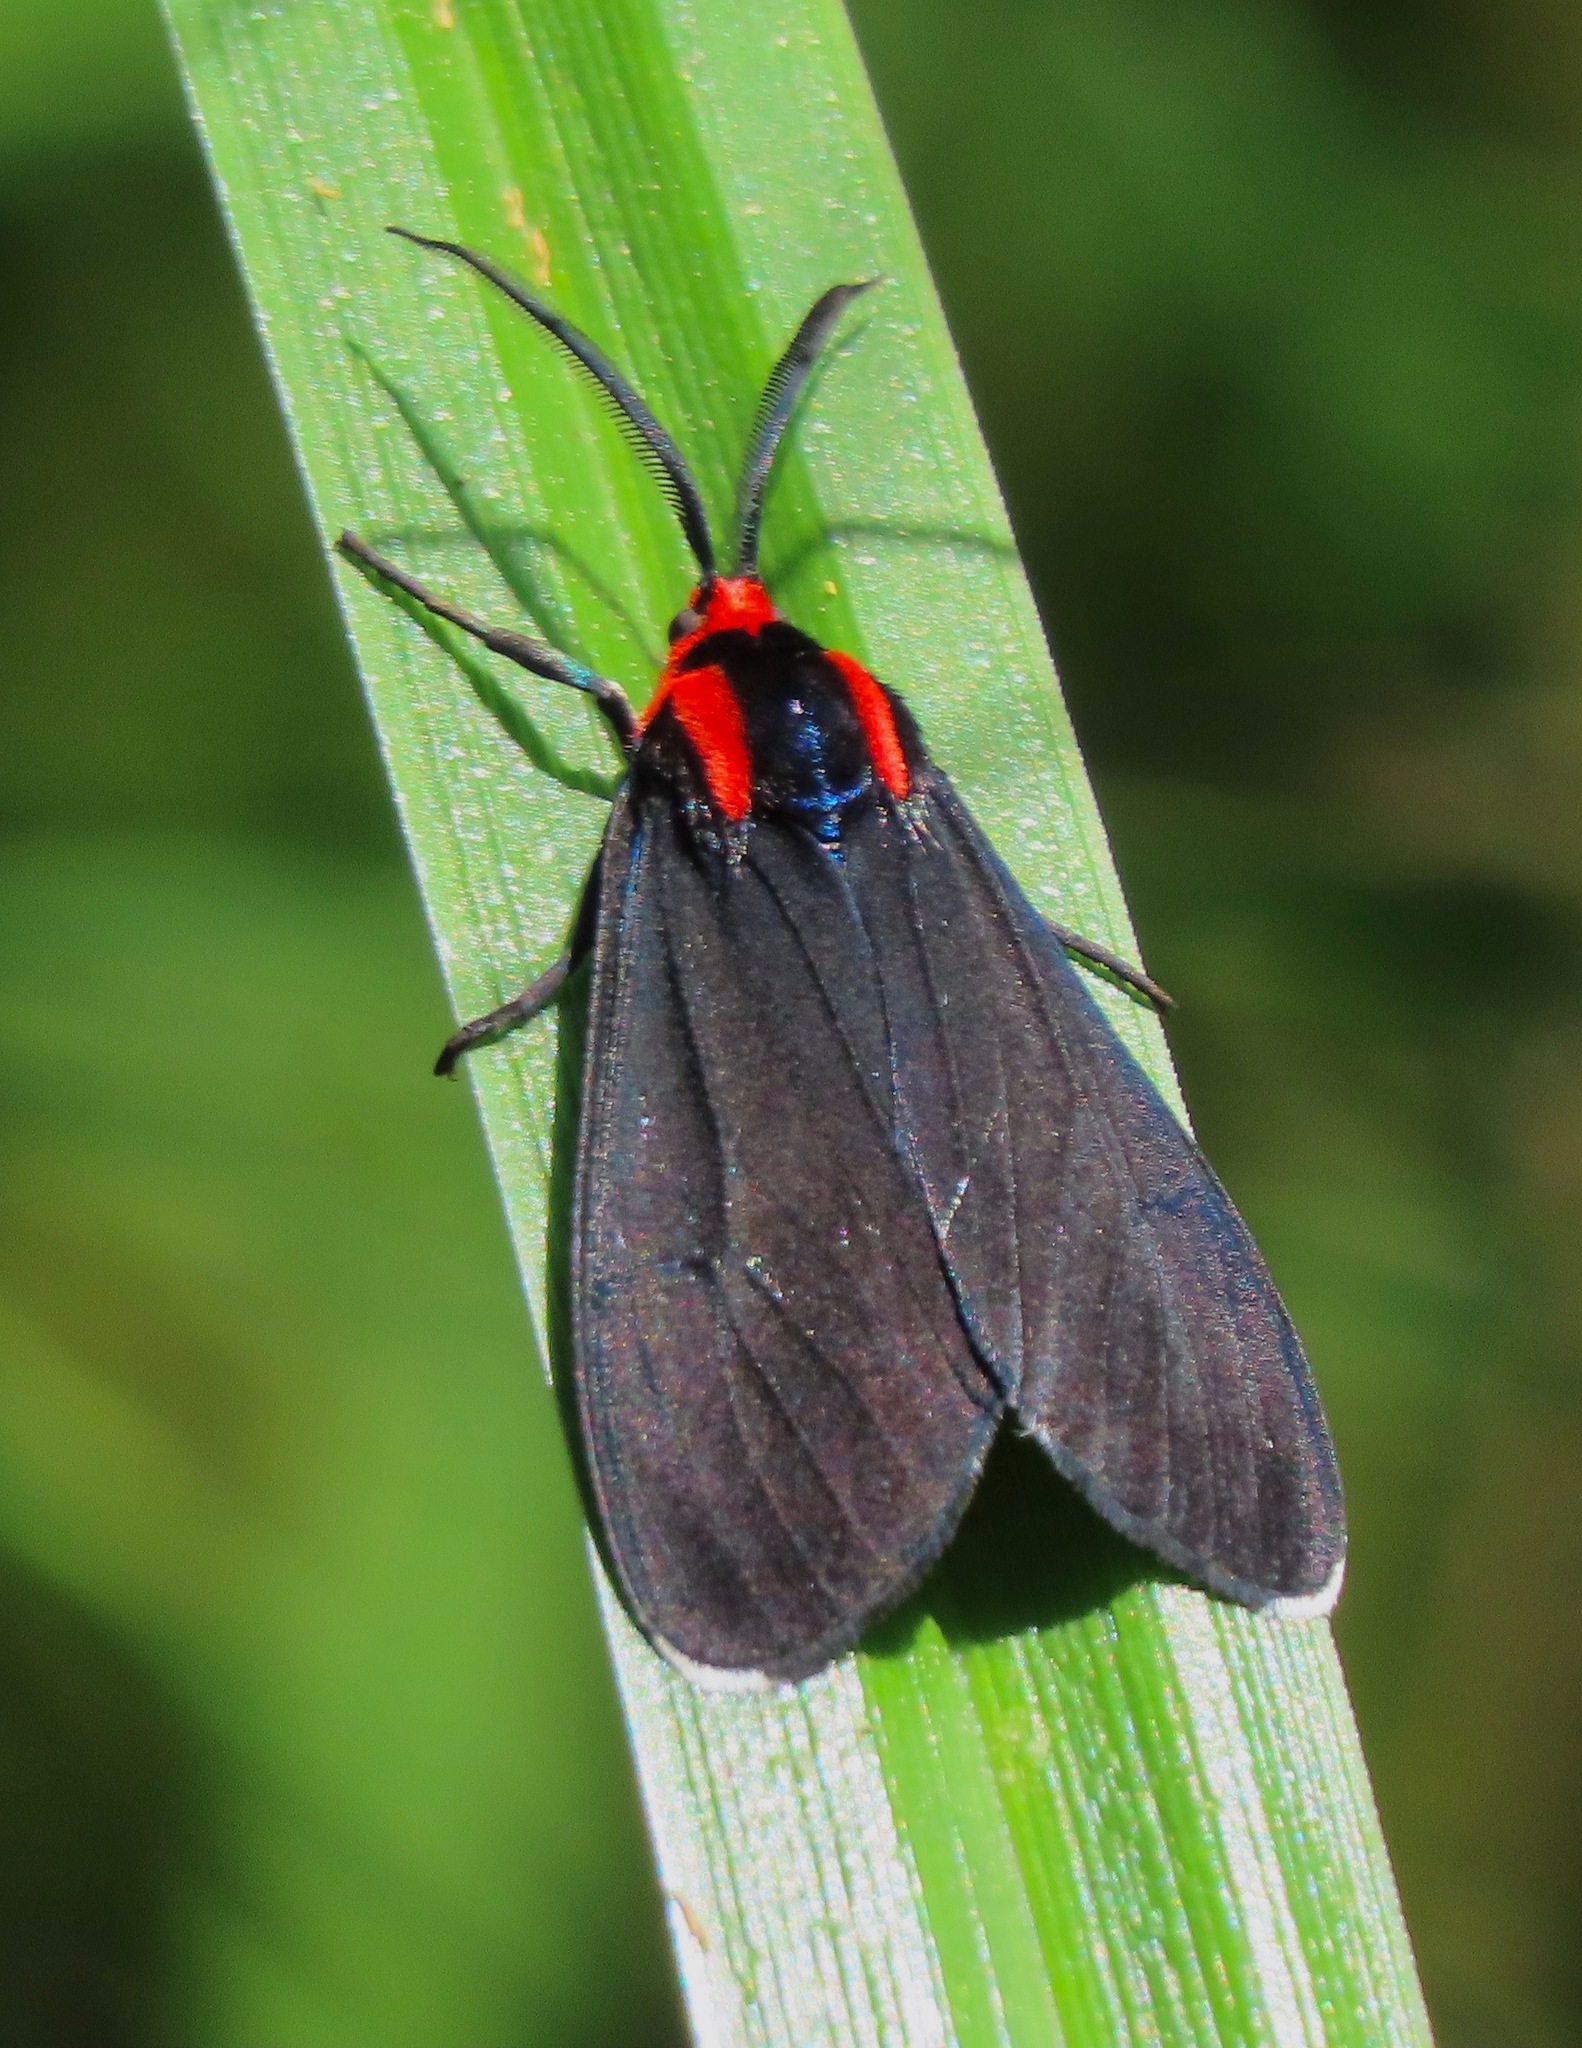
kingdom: Animalia
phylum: Arthropoda
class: Insecta
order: Lepidoptera
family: Erebidae
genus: Ctenucha
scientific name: Ctenucha rubroscapus
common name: Red-shouldered ctenucha
